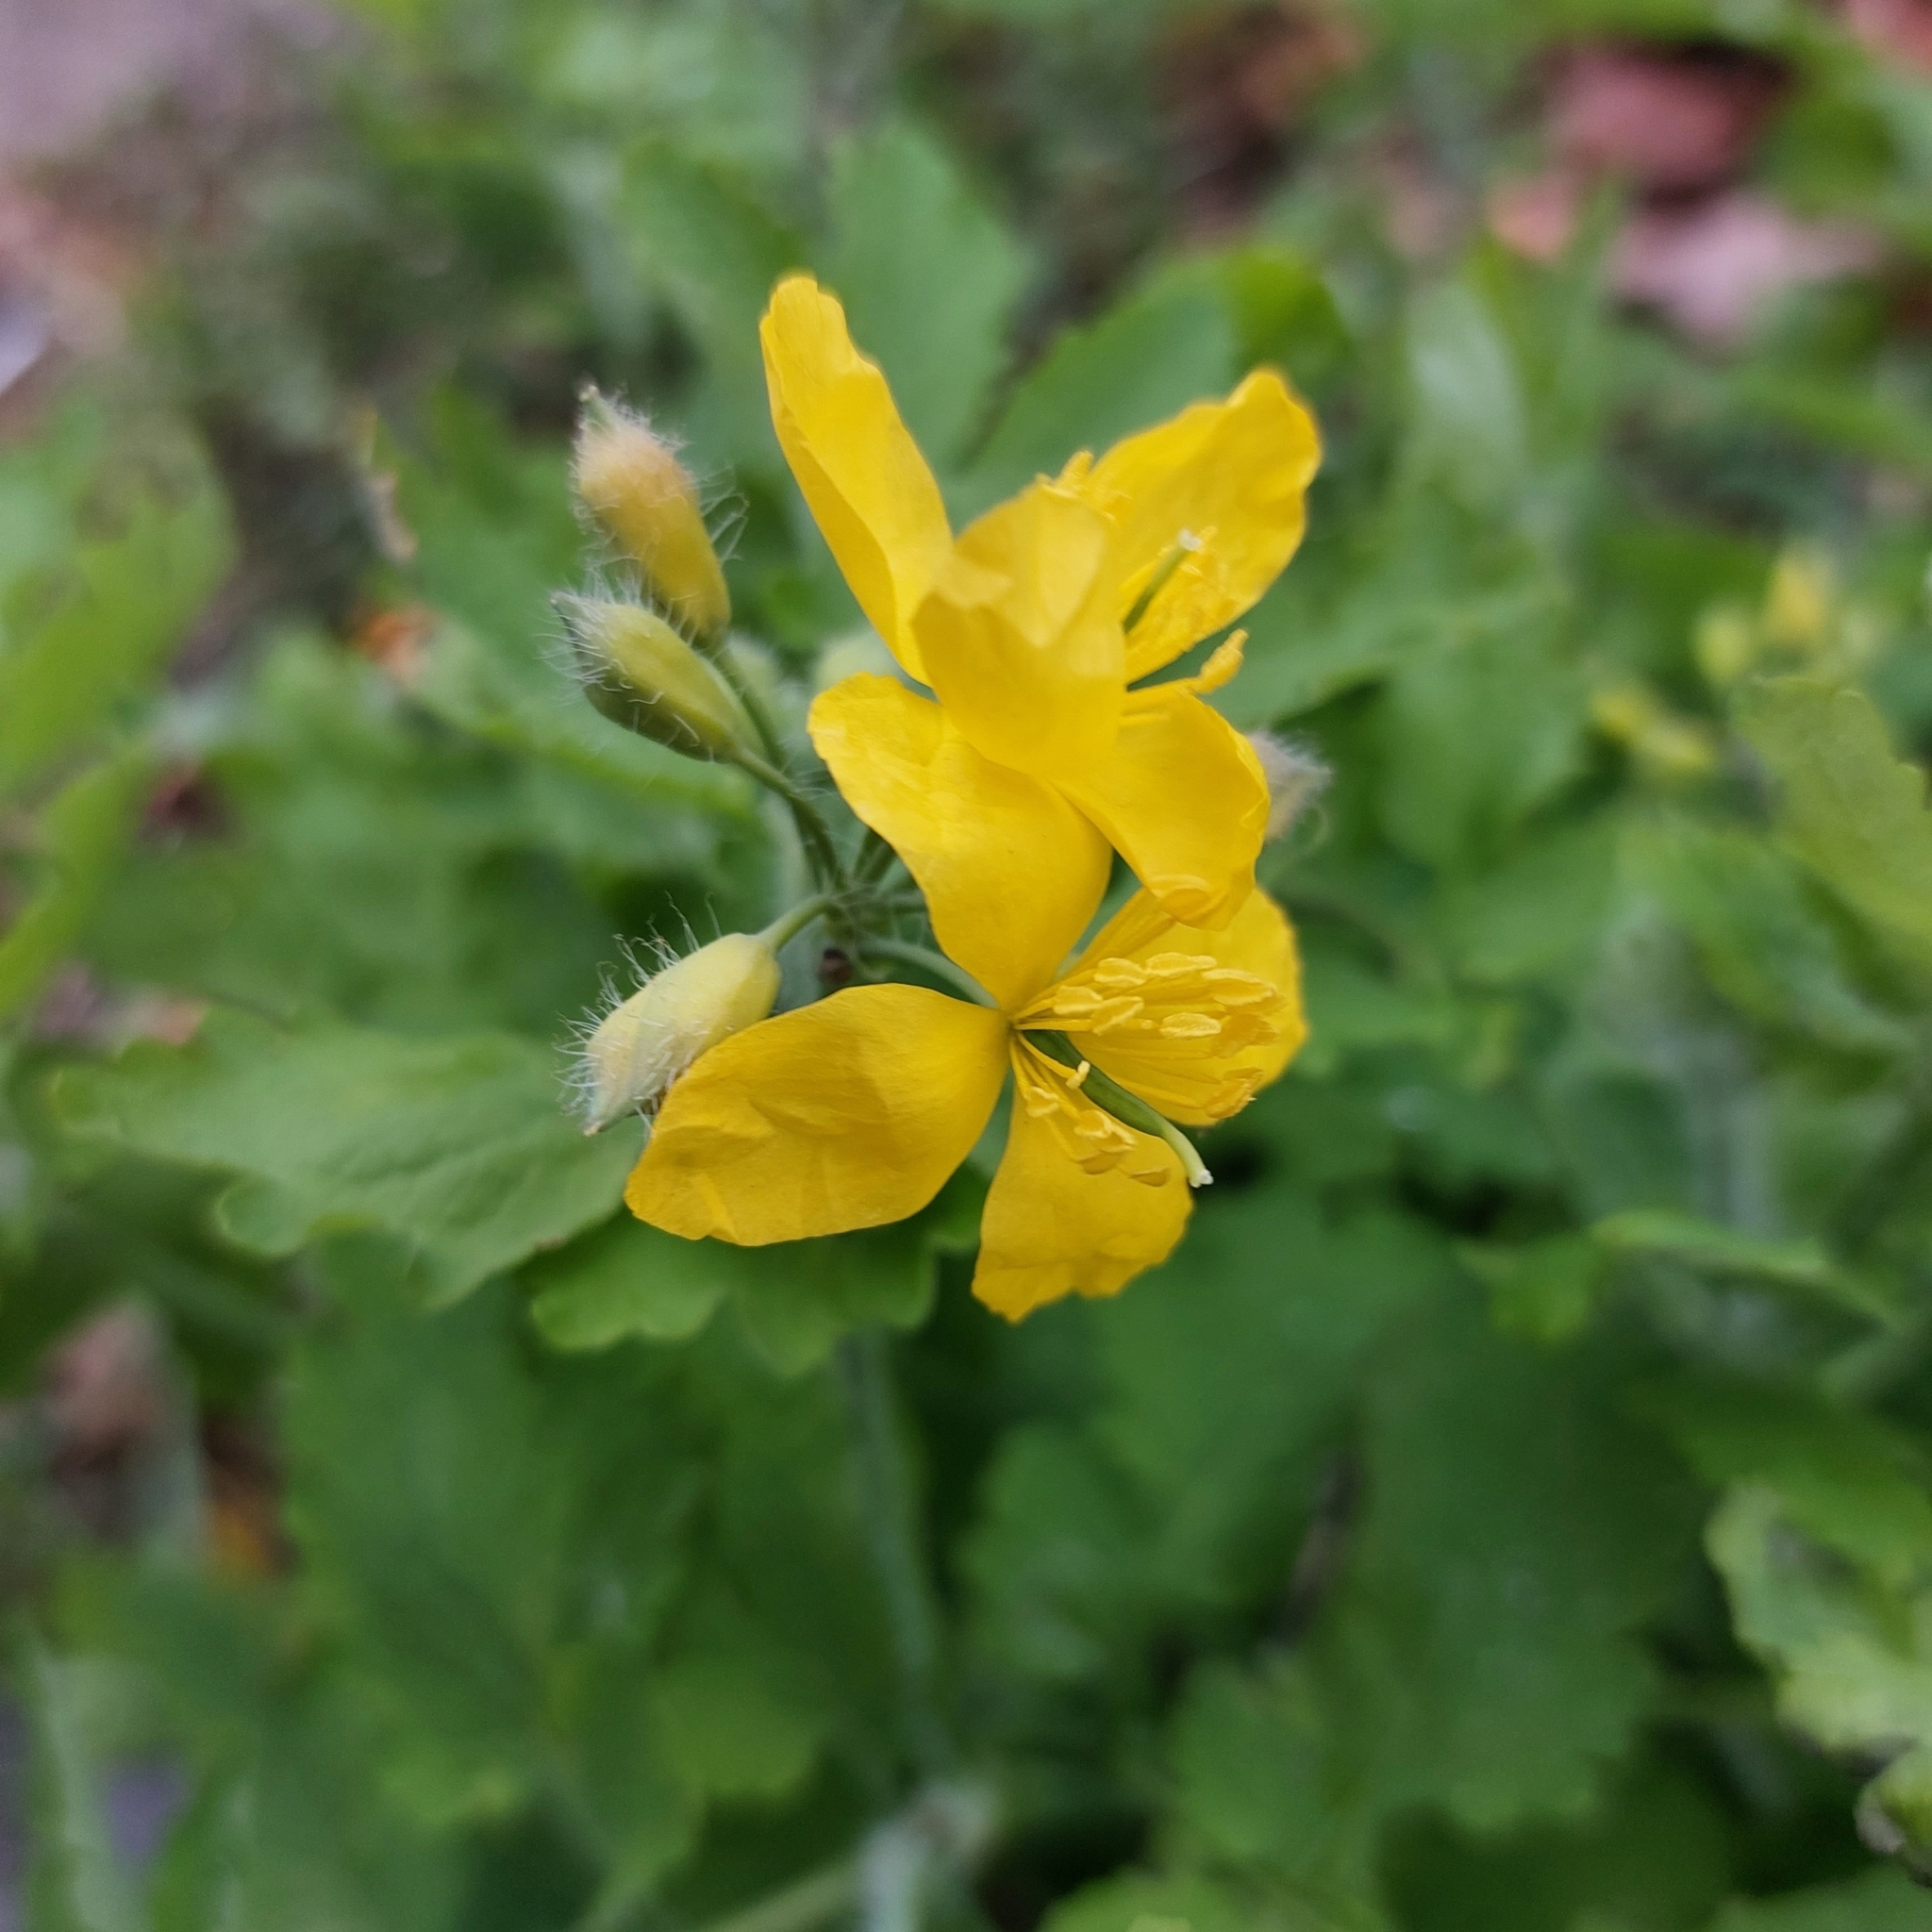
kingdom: Plantae
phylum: Tracheophyta
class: Magnoliopsida
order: Ranunculales
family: Papaveraceae
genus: Chelidonium
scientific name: Chelidonium majus
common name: Greater celandine
